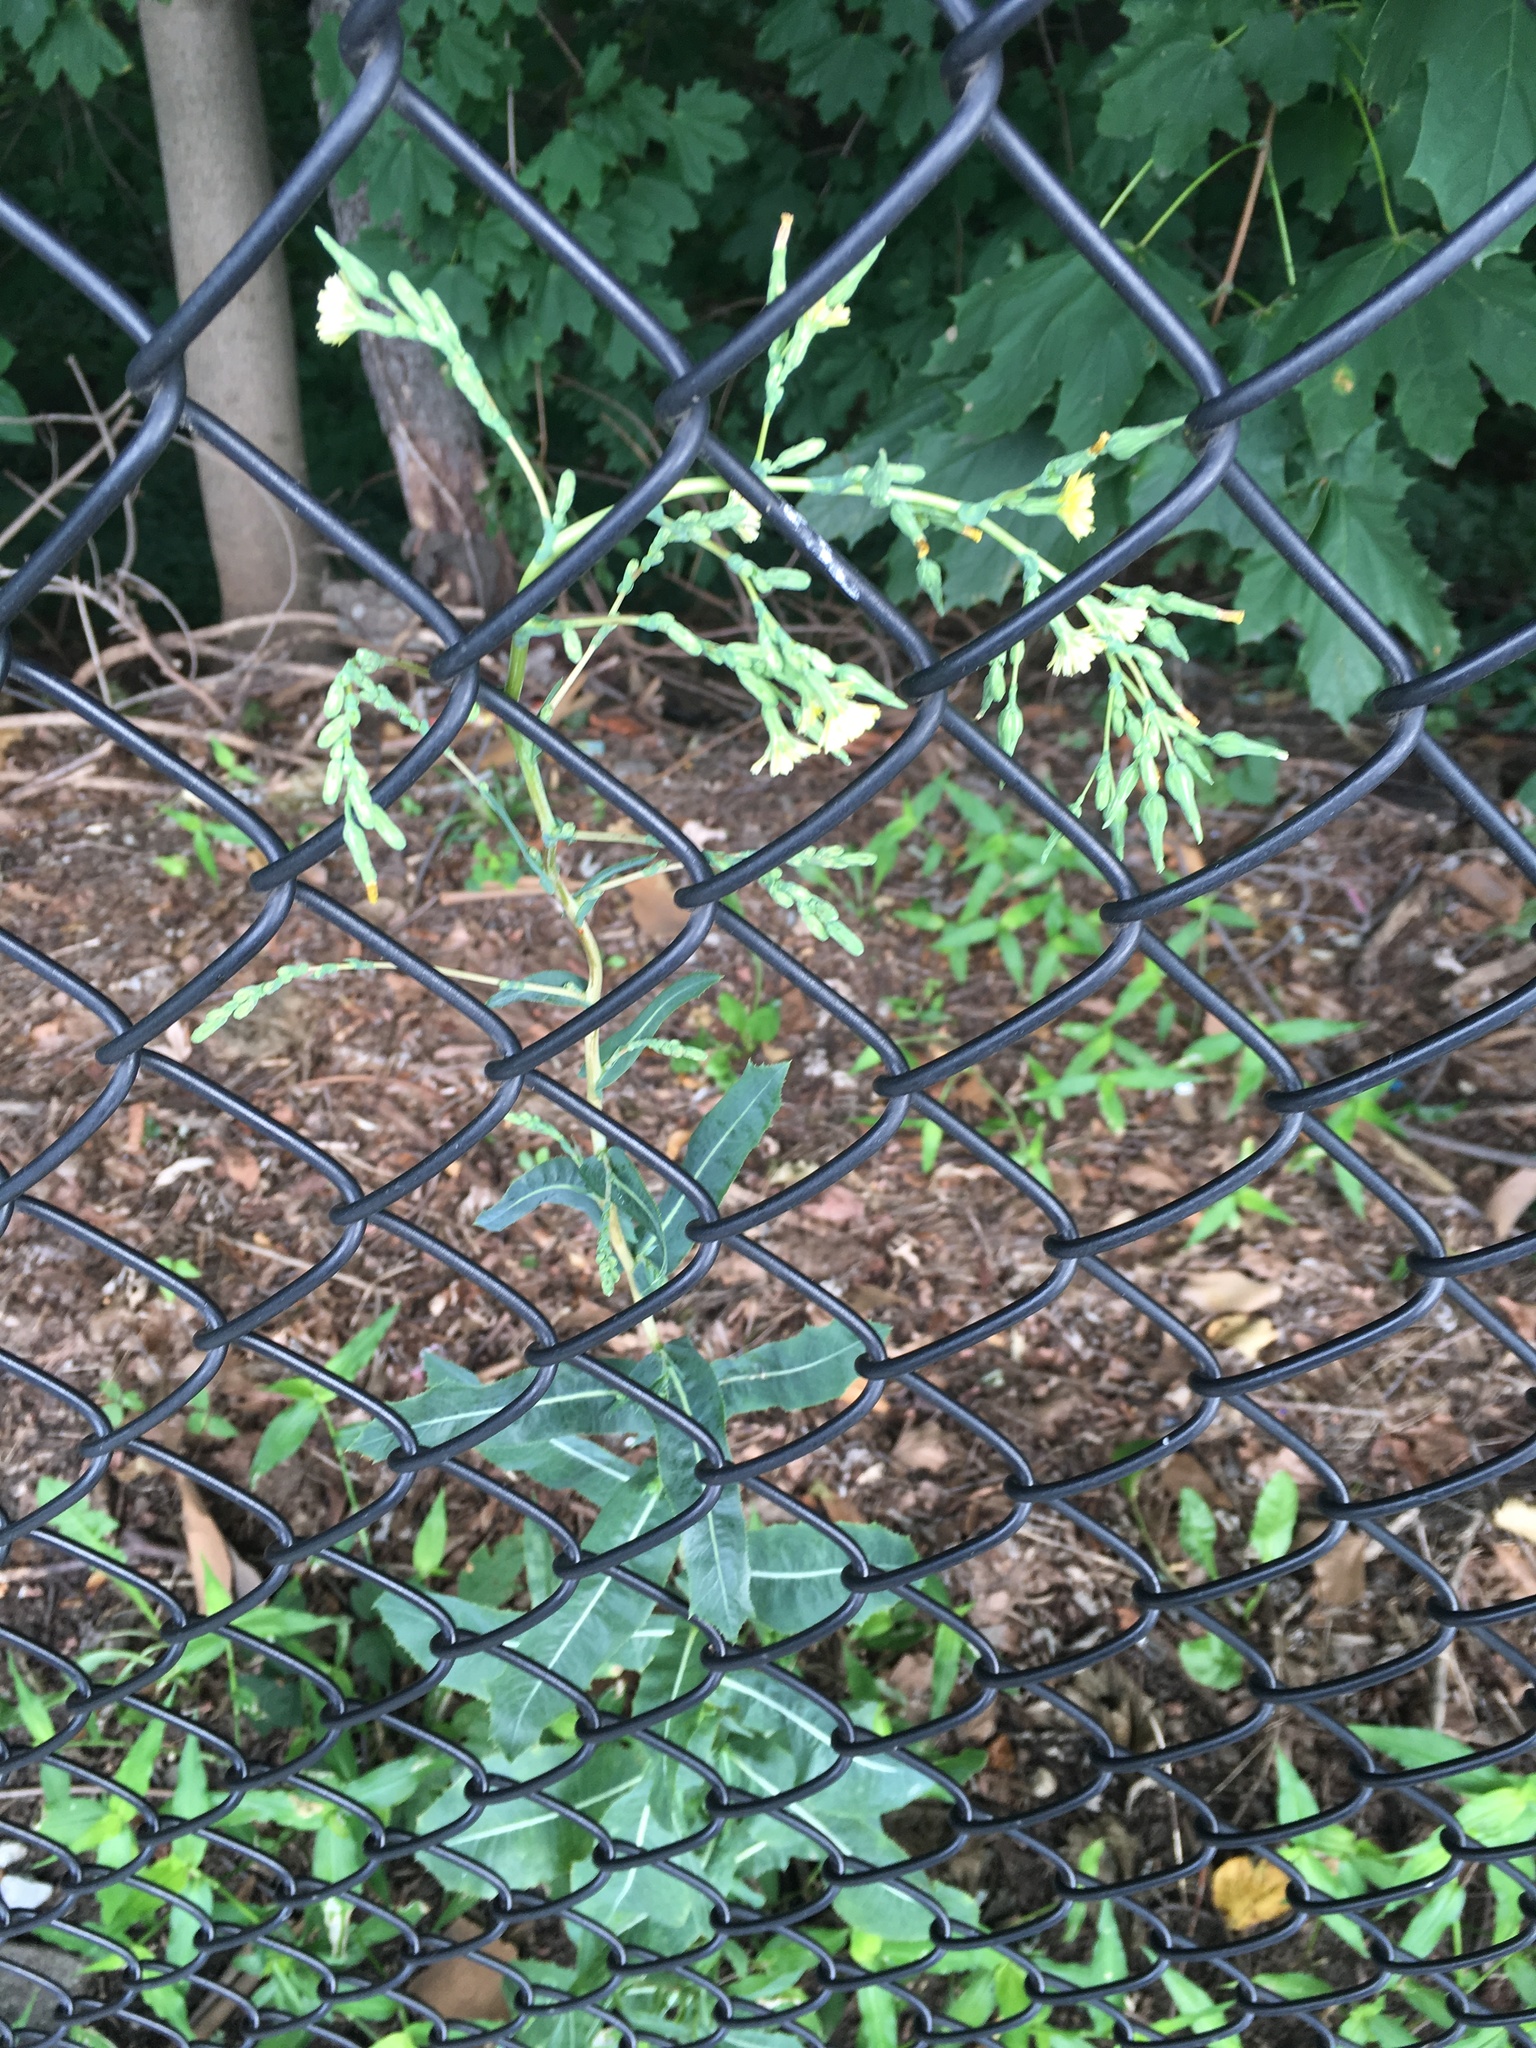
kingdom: Plantae
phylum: Tracheophyta
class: Magnoliopsida
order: Asterales
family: Asteraceae
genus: Lactuca
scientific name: Lactuca serriola
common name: Prickly lettuce
